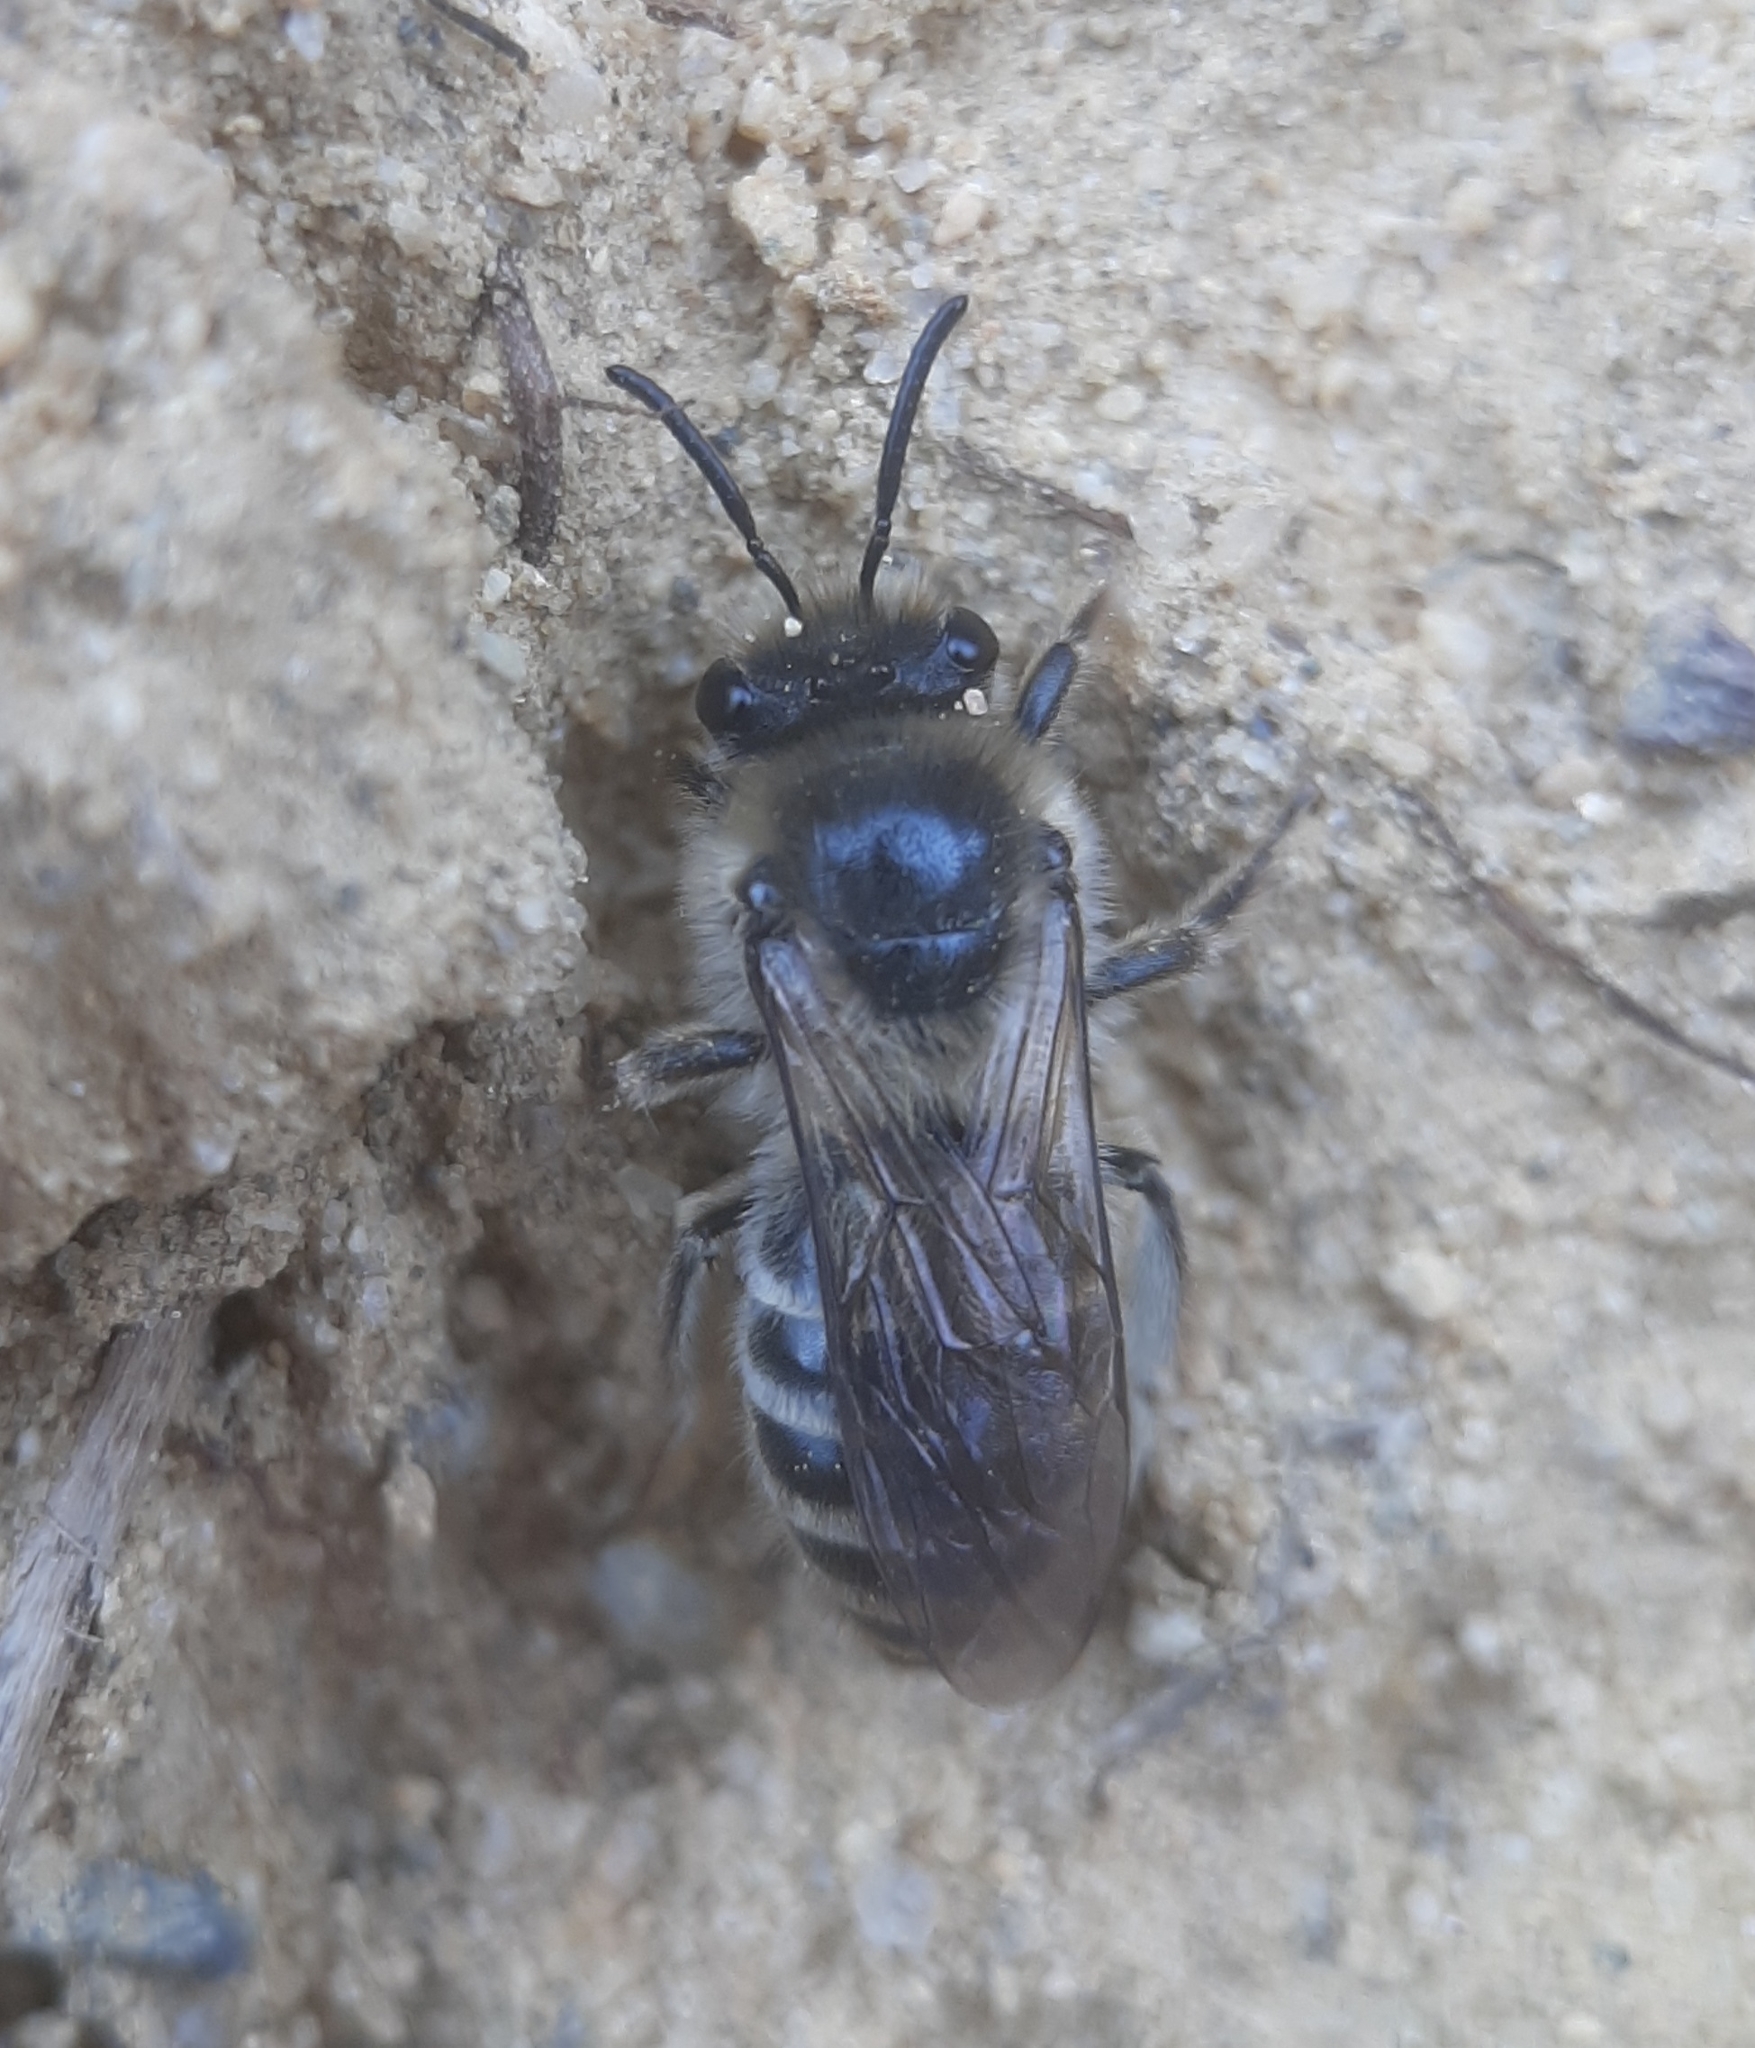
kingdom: Animalia
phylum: Arthropoda
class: Insecta
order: Hymenoptera
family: Colletidae
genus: Colletes
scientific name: Colletes inaequalis
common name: Unequal cellophane bee
